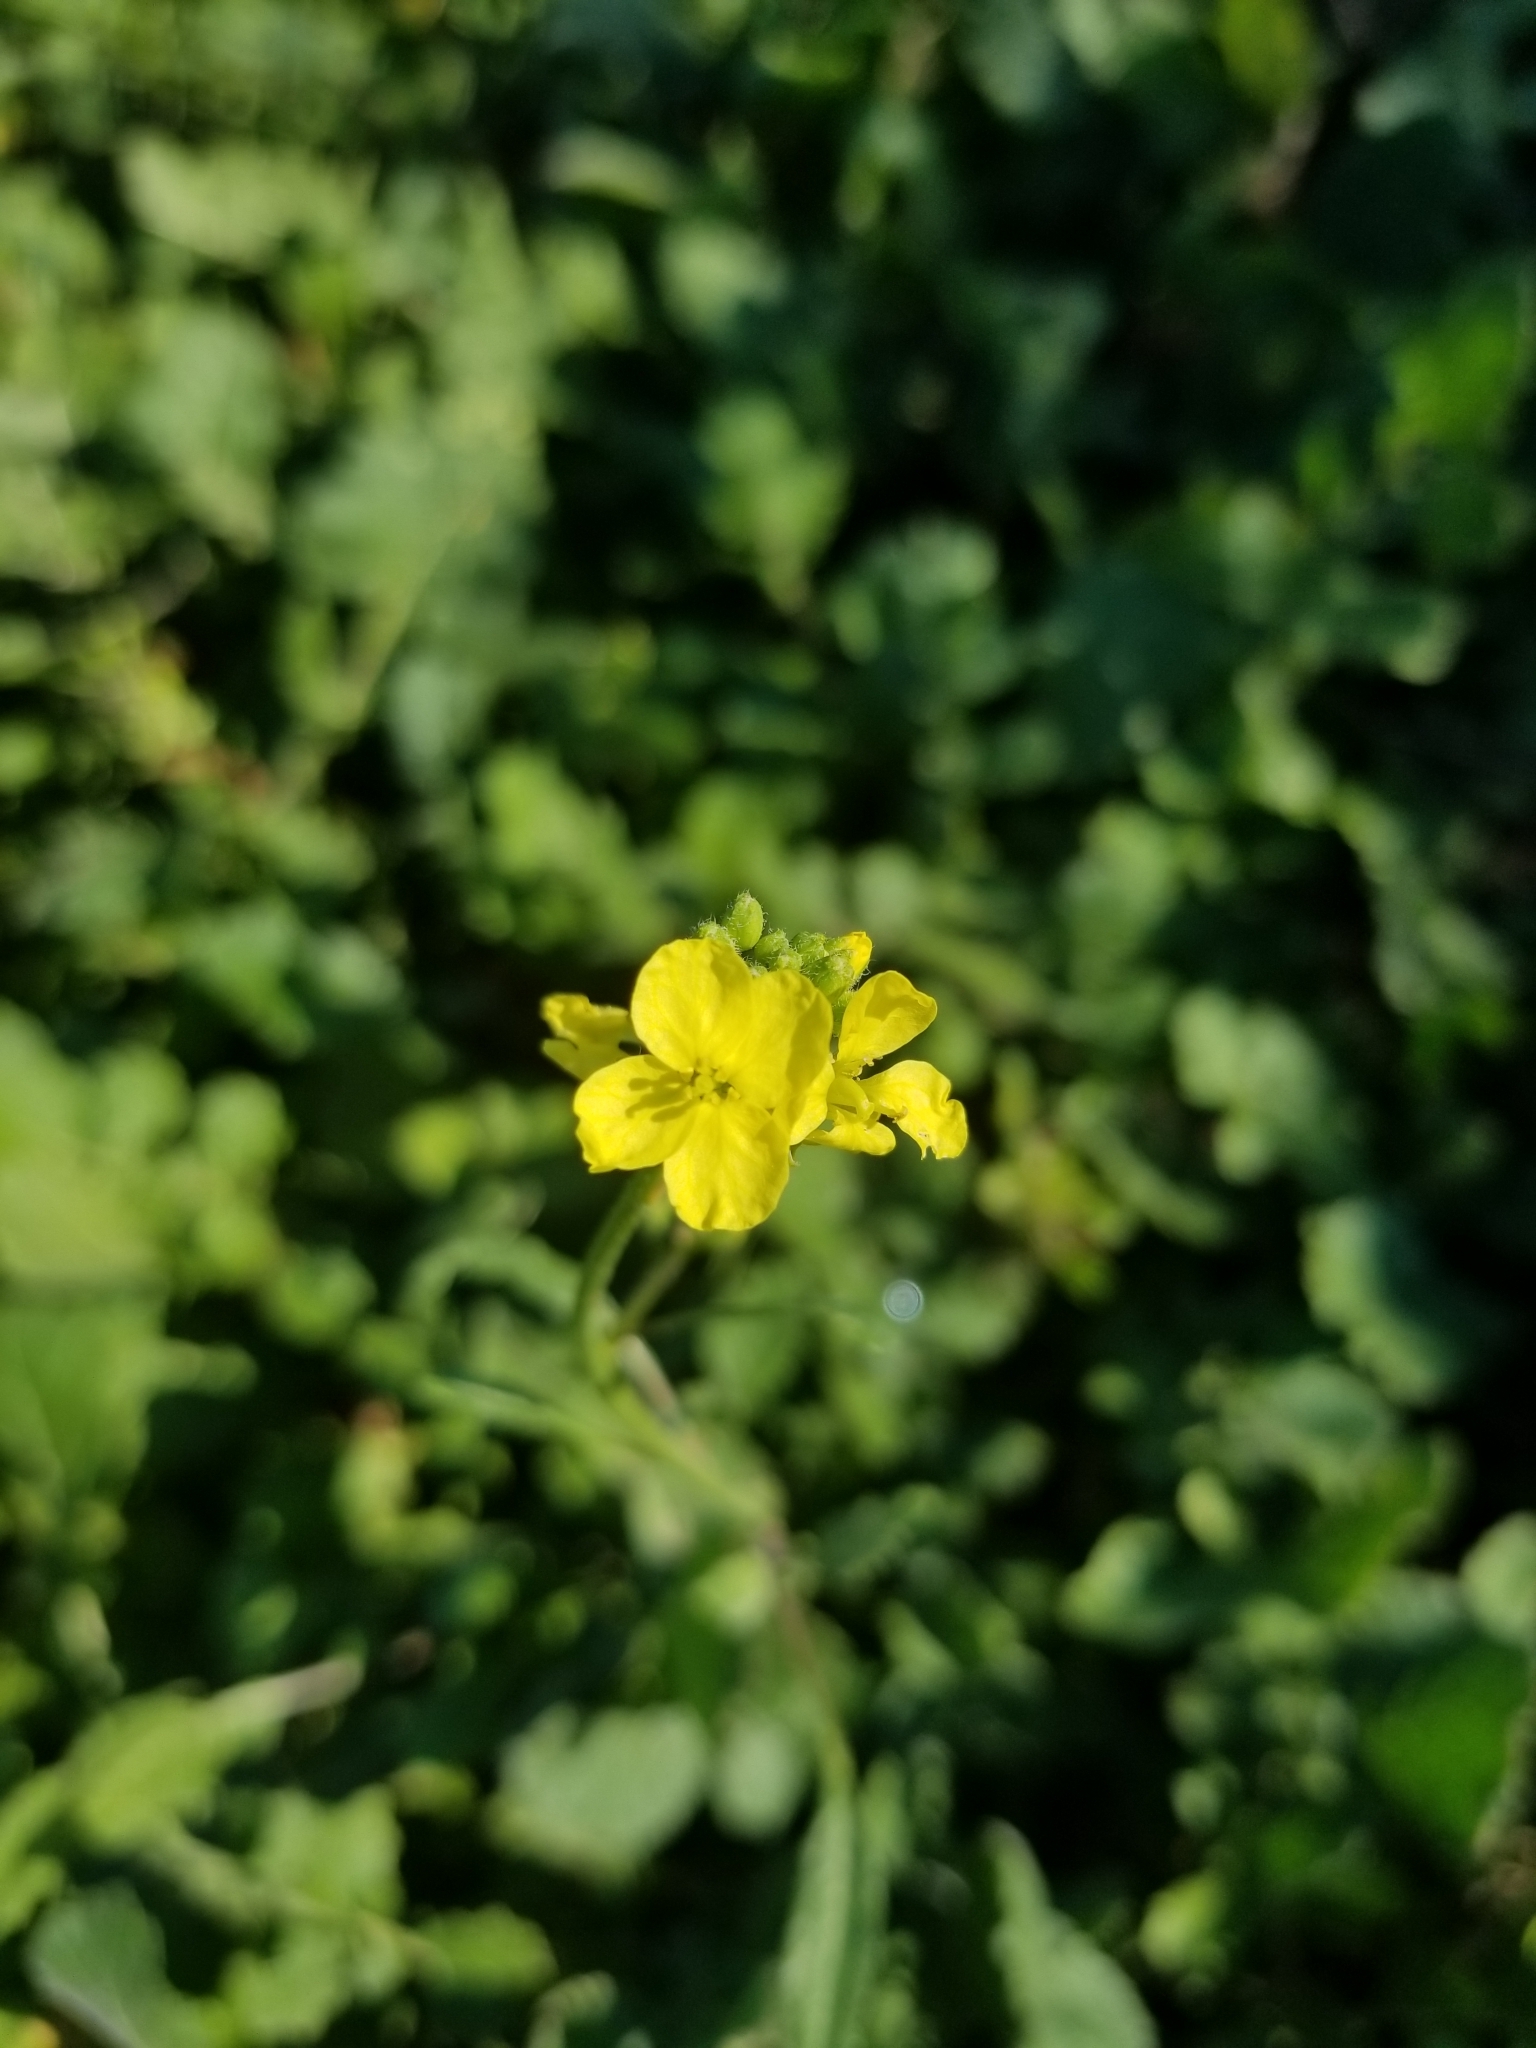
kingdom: Plantae
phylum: Tracheophyta
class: Magnoliopsida
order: Brassicales
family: Brassicaceae
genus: Hirschfeldia
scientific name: Hirschfeldia incana
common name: Hoary mustard
